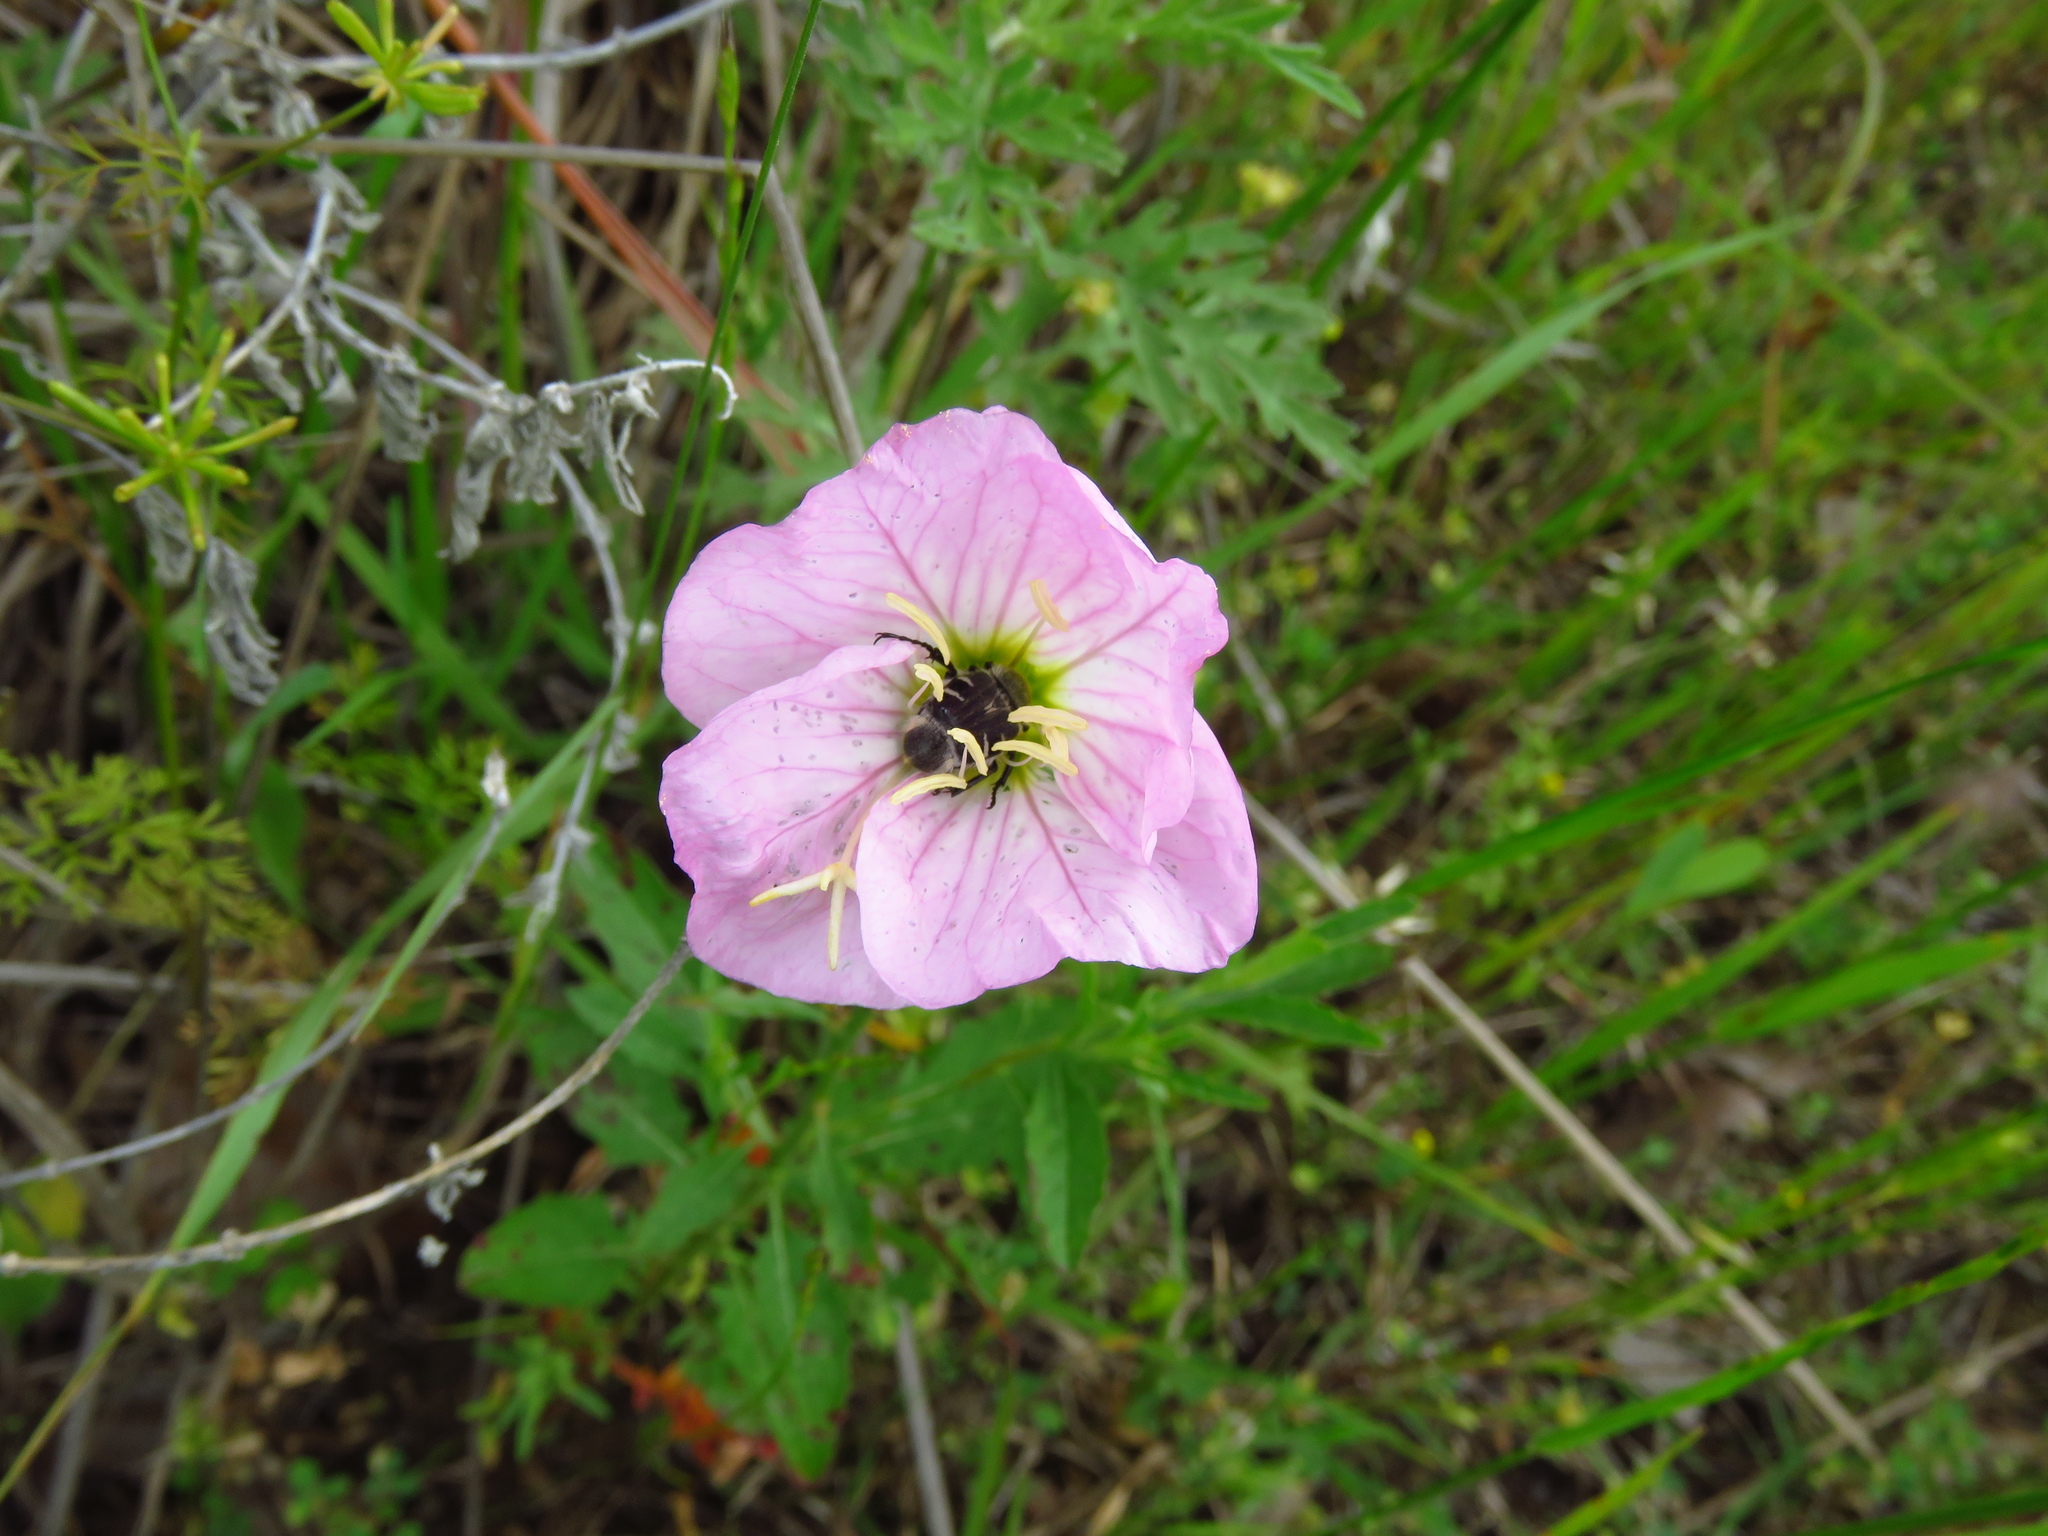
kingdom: Plantae
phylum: Tracheophyta
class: Magnoliopsida
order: Myrtales
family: Onagraceae
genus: Oenothera
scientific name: Oenothera speciosa
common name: White evening-primrose
